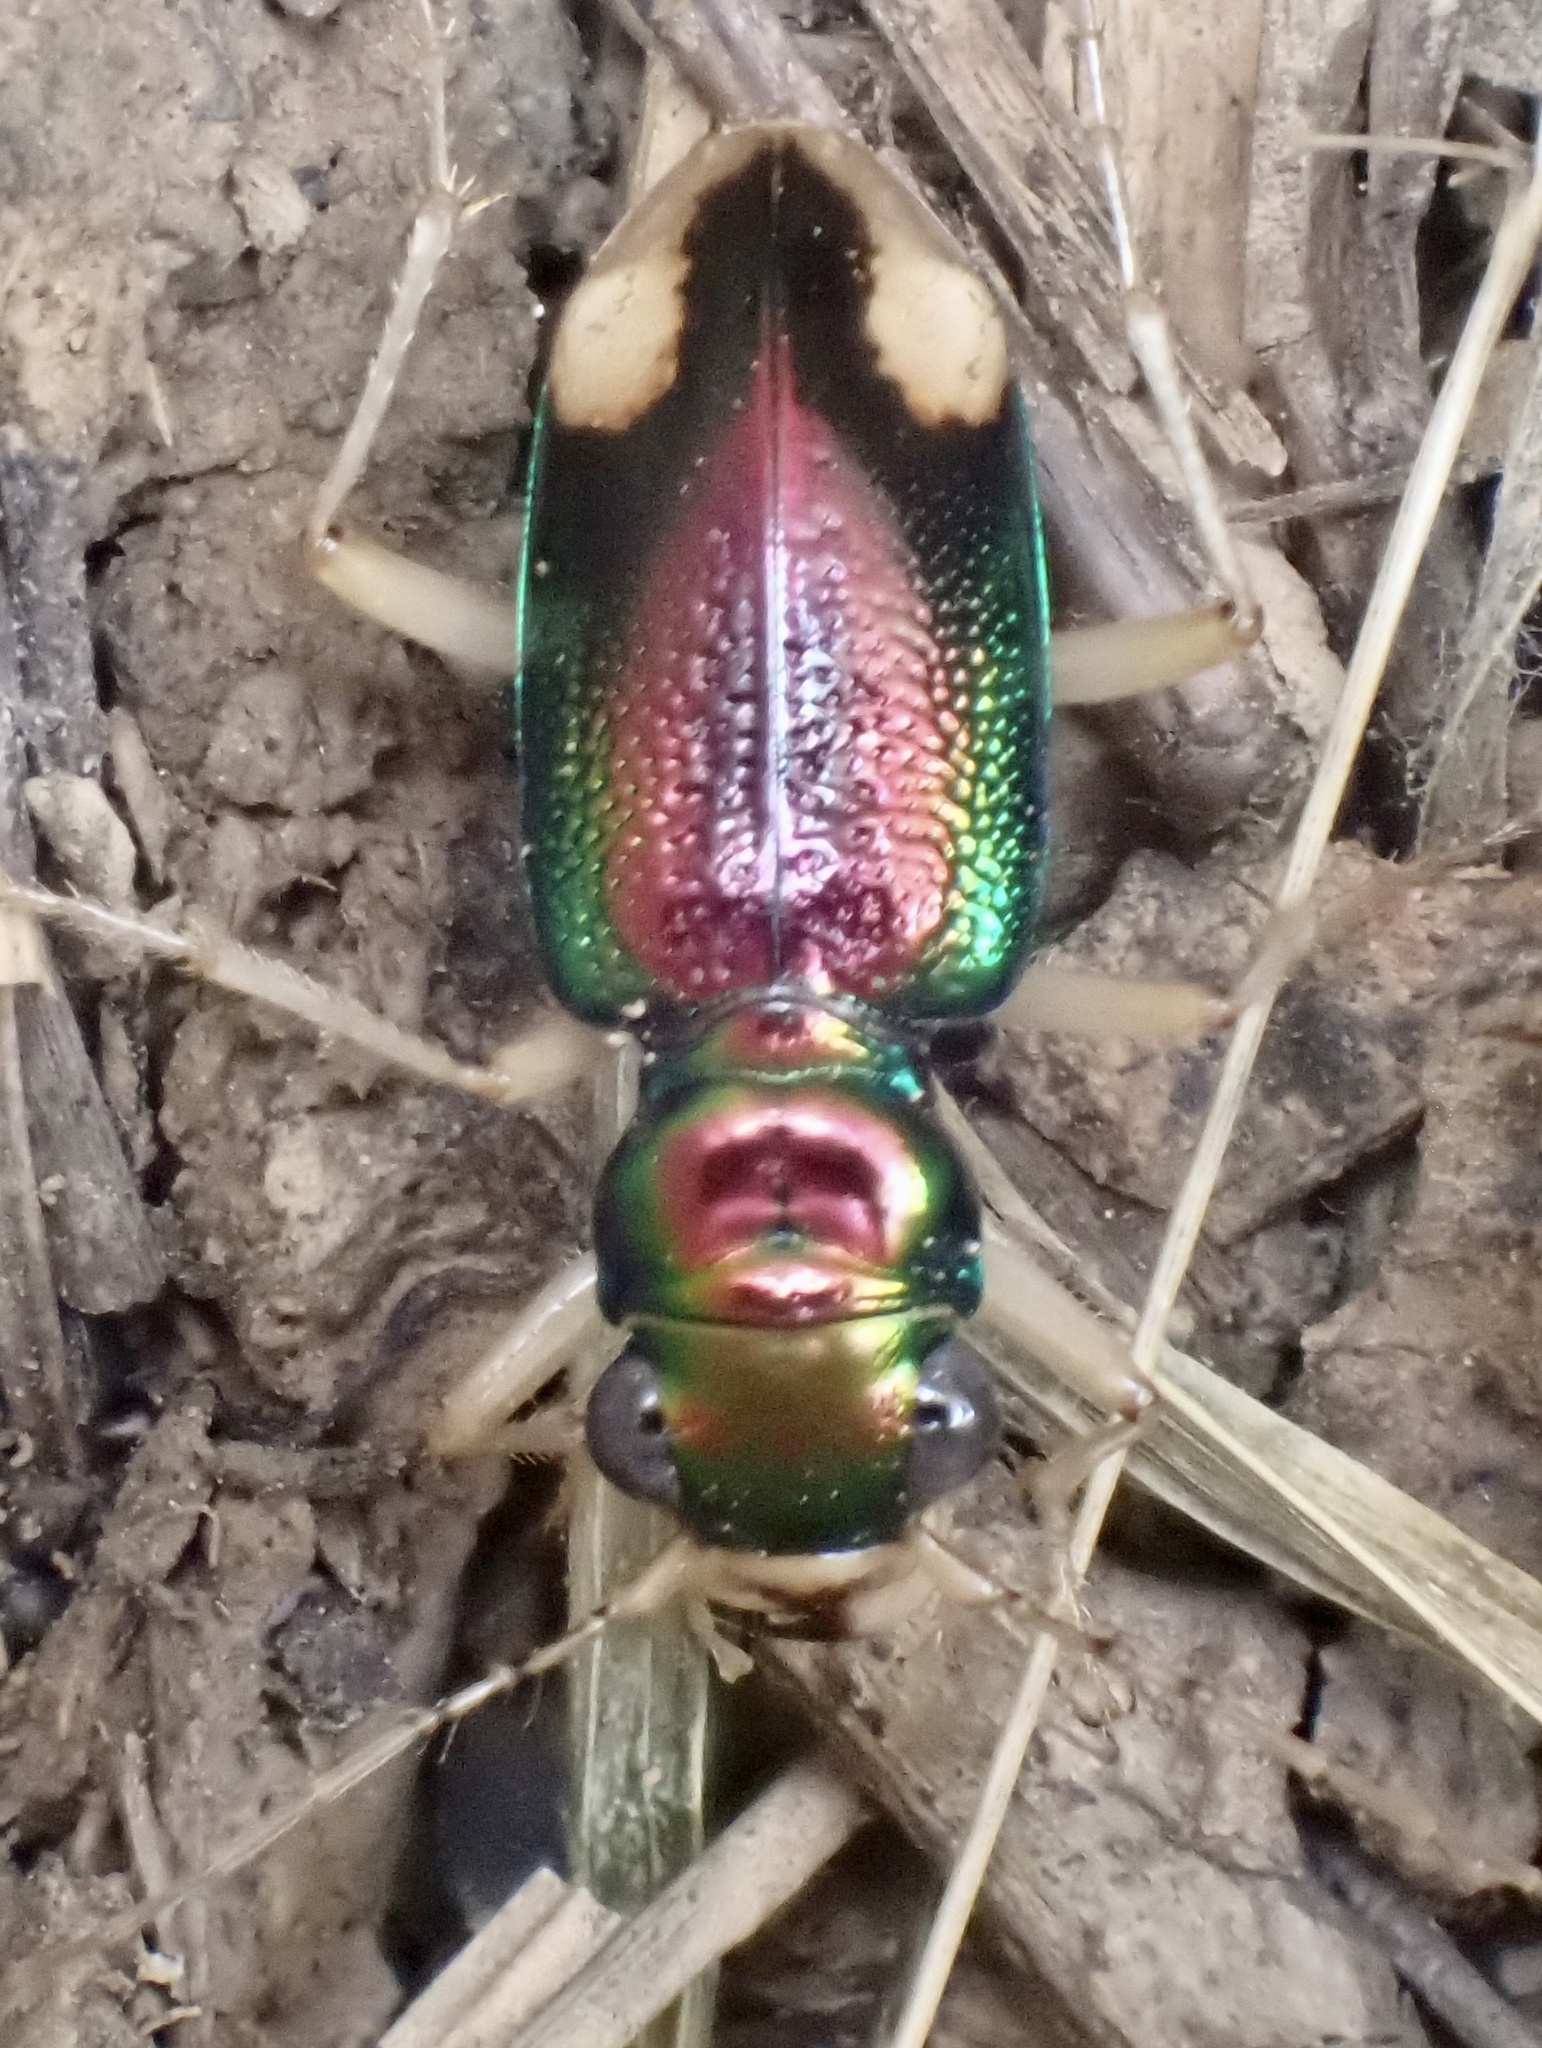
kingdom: Animalia
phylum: Arthropoda
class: Insecta
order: Coleoptera
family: Carabidae
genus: Tetracha
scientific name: Tetracha carolina
